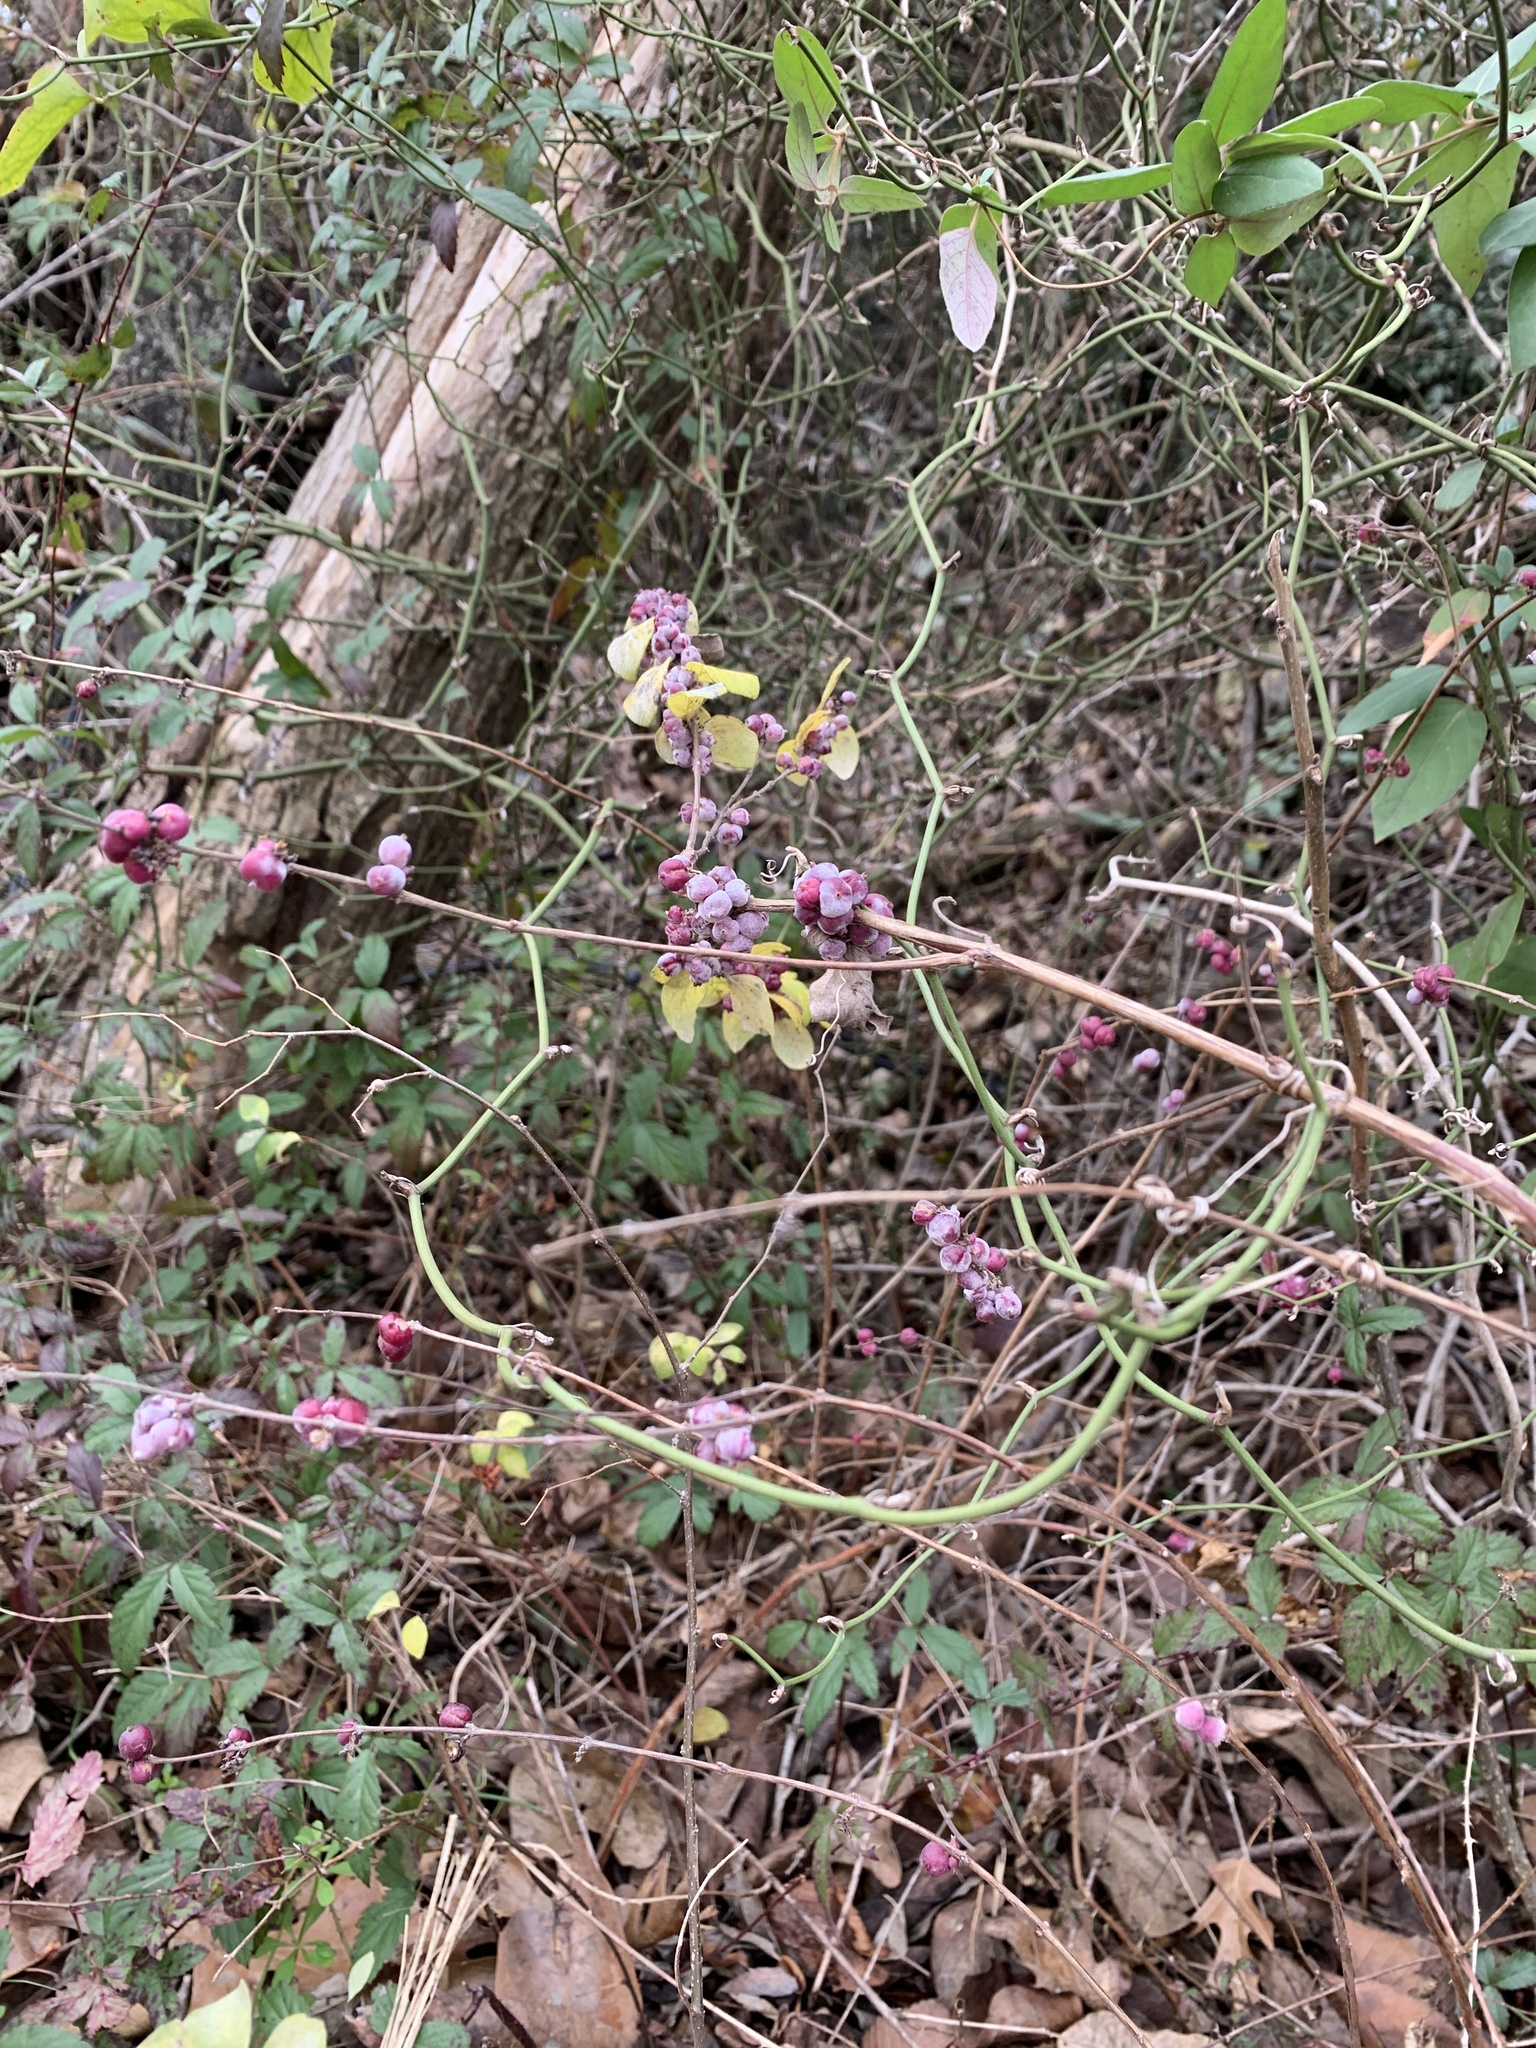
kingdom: Plantae
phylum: Tracheophyta
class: Magnoliopsida
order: Dipsacales
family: Caprifoliaceae
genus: Symphoricarpos
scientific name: Symphoricarpos orbiculatus
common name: Coralberry
